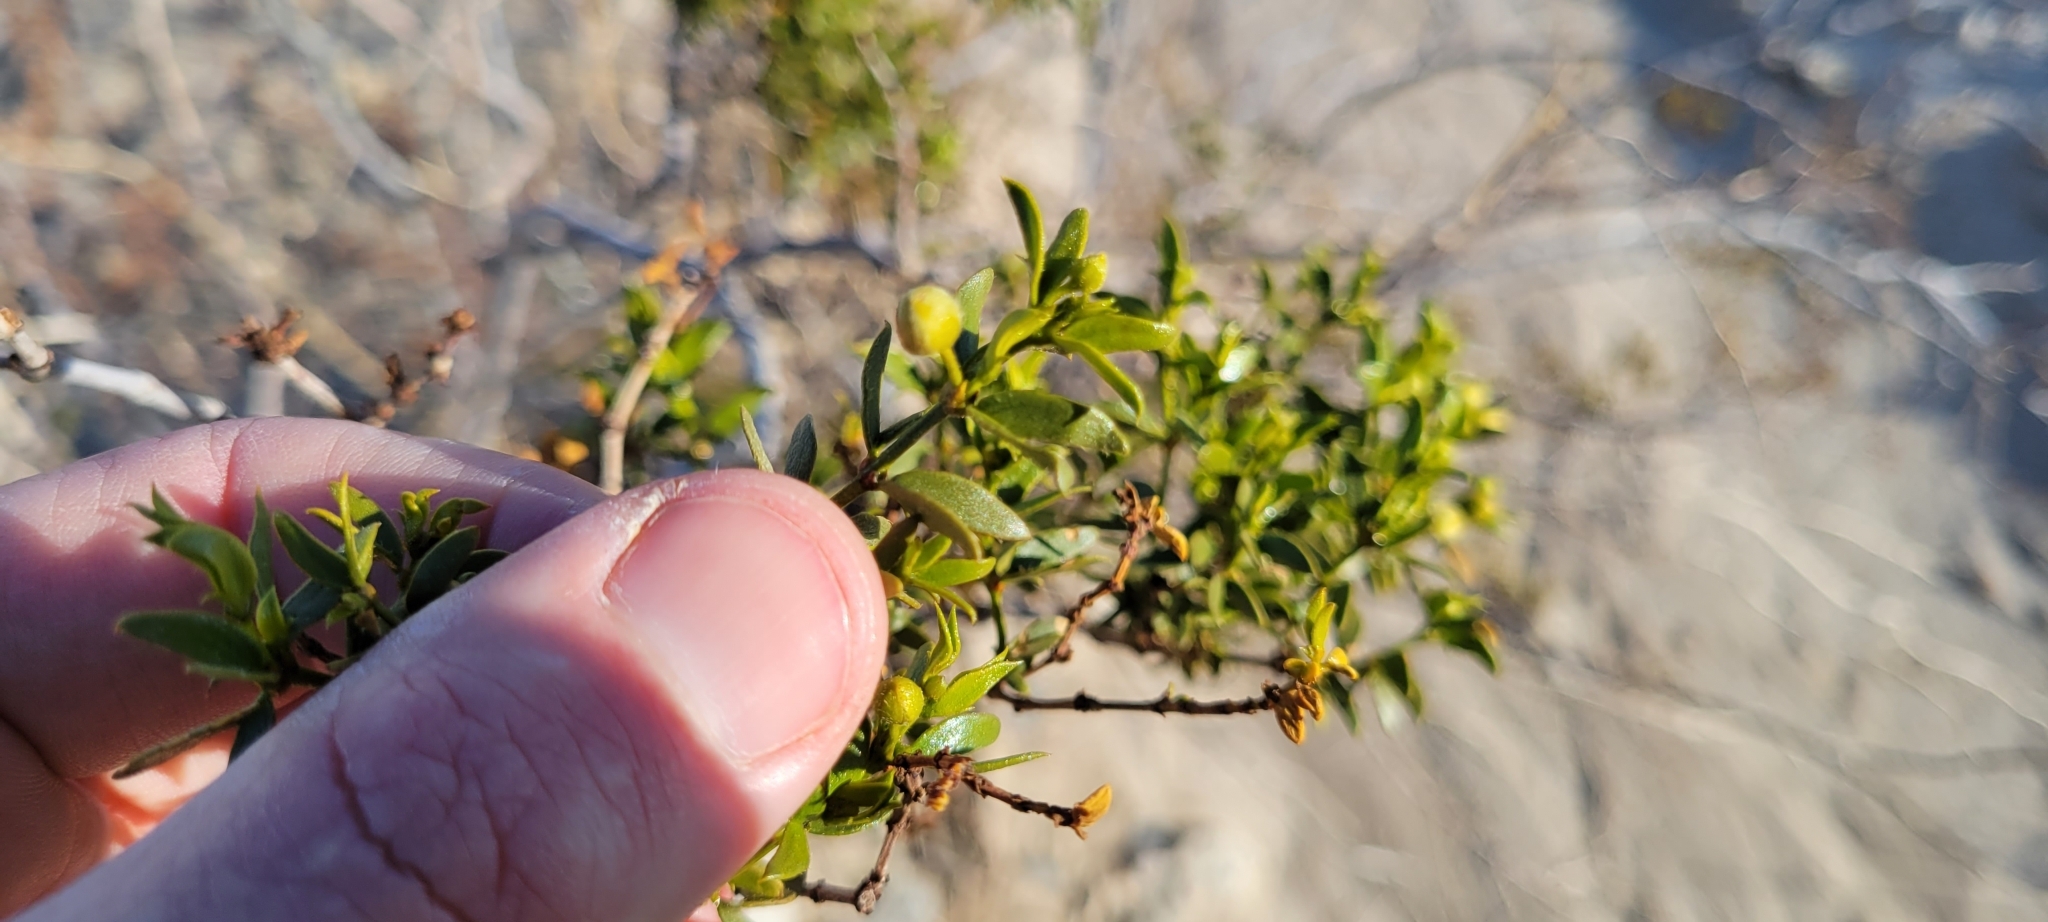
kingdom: Plantae
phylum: Tracheophyta
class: Magnoliopsida
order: Zygophyllales
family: Zygophyllaceae
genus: Larrea
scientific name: Larrea tridentata
